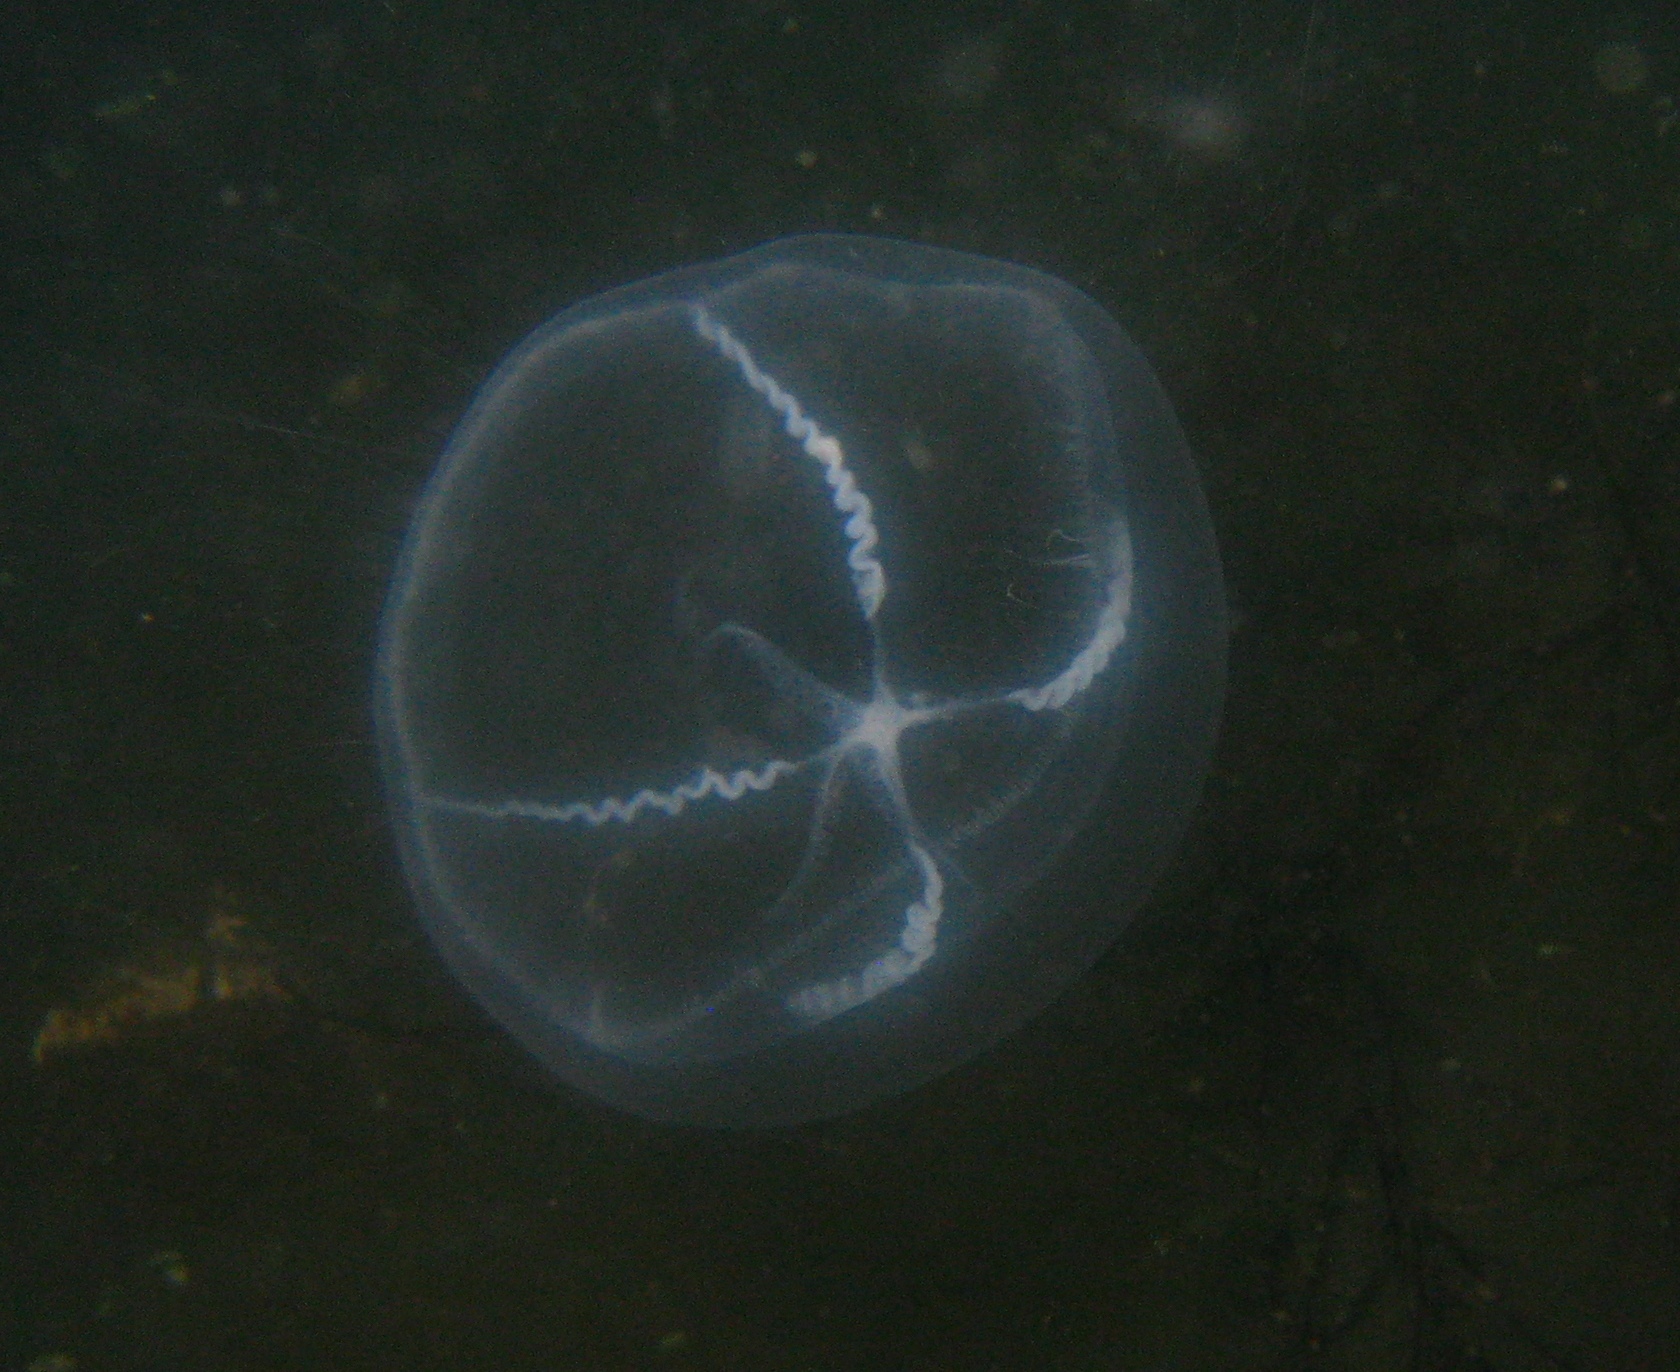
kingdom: Animalia
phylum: Cnidaria
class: Hydrozoa
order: Leptothecata
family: Mitrocomidae
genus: Mitrocoma
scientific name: Mitrocoma cellularia
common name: Cross jellyfish
